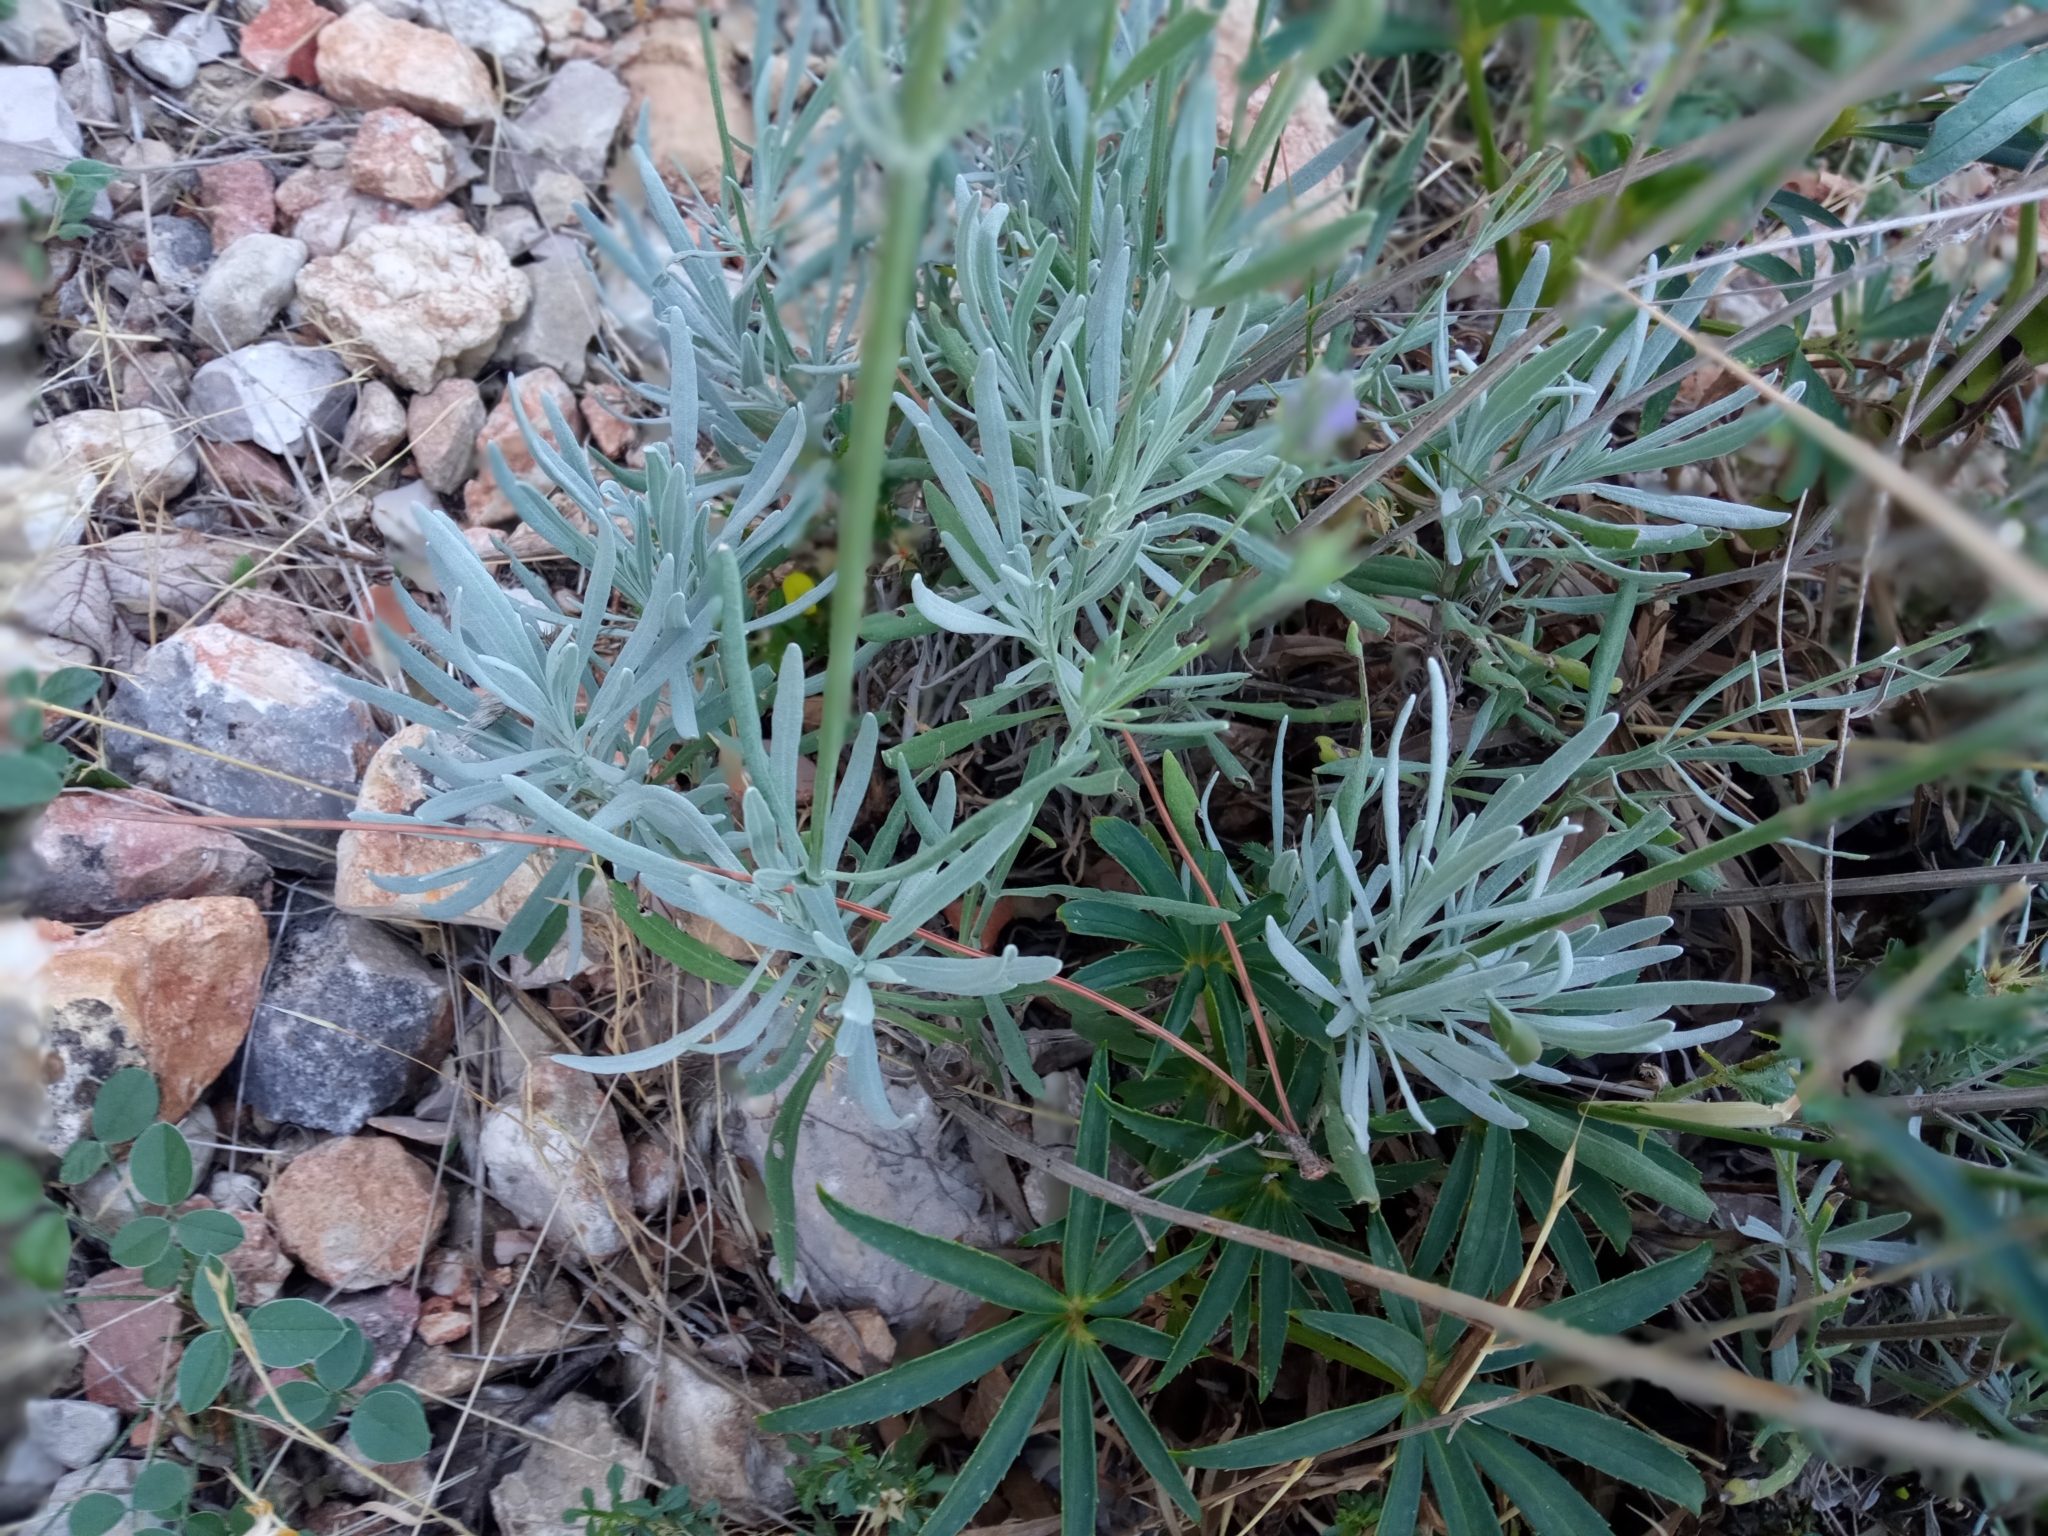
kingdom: Plantae
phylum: Tracheophyta
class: Magnoliopsida
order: Lamiales
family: Lamiaceae
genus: Lavandula
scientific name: Lavandula latifolia
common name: Spike lavendar
